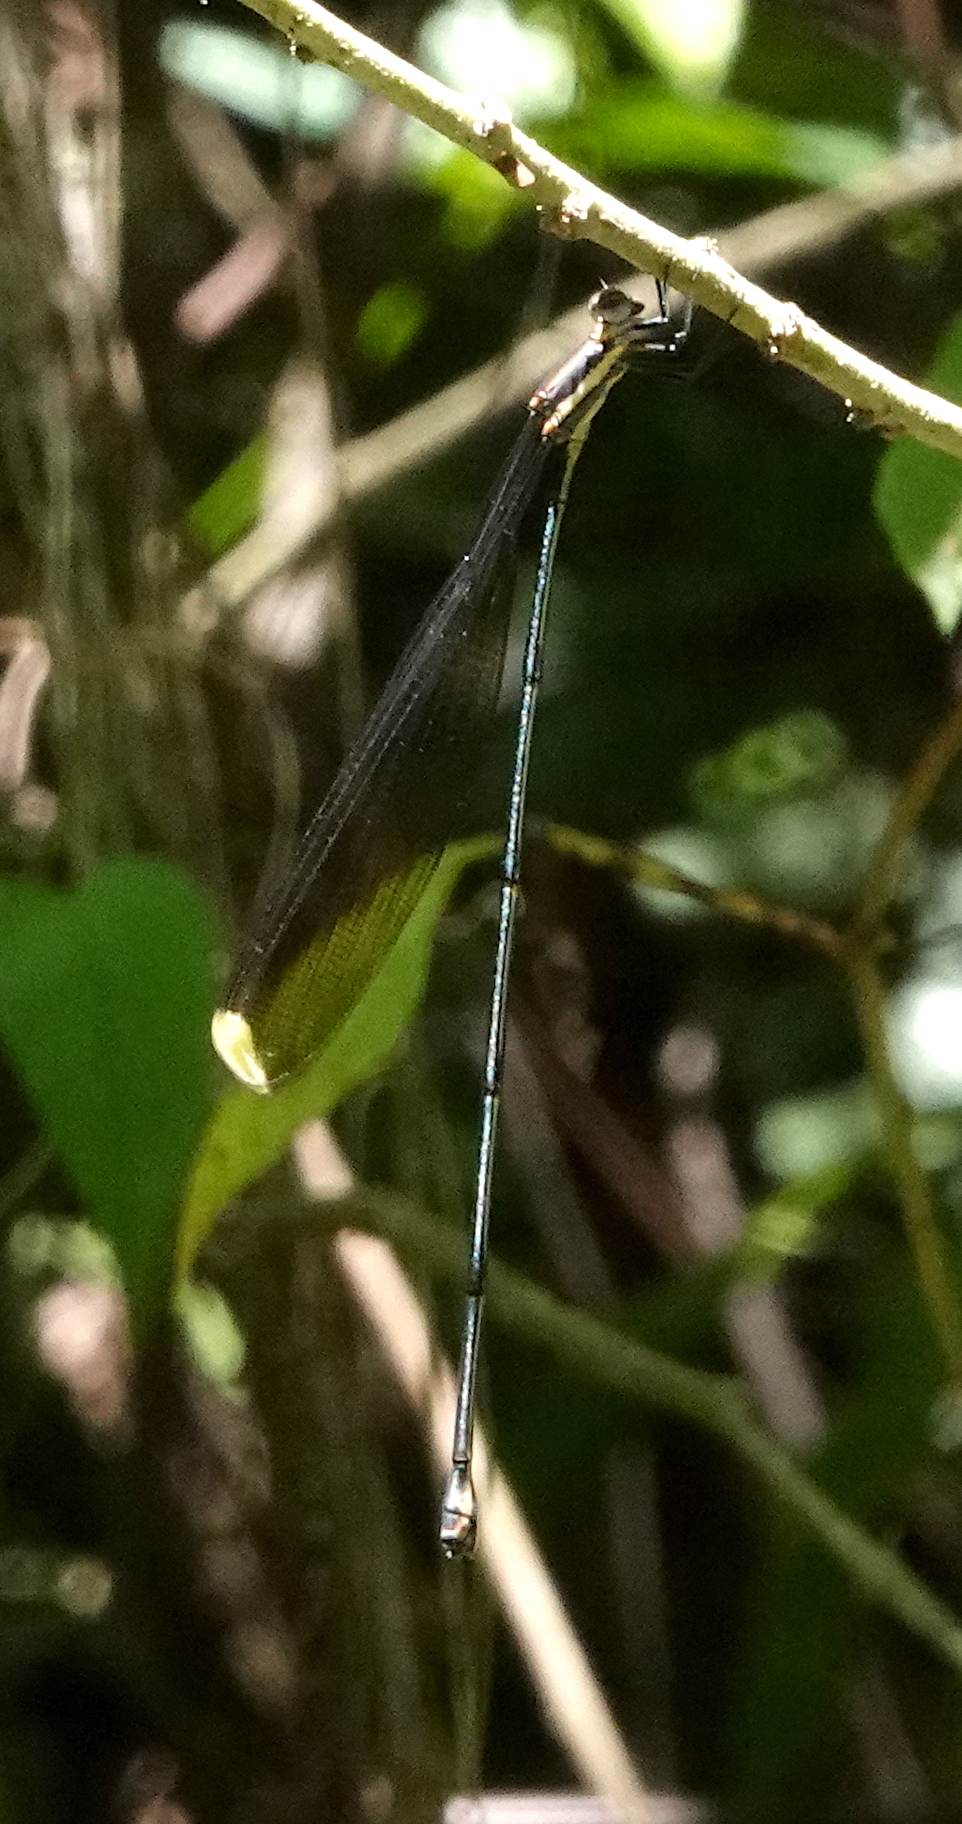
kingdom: Animalia
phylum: Arthropoda
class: Insecta
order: Odonata
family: Coenagrionidae
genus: Mecistogaster
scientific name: Mecistogaster ornata
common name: Ornate helicopter
